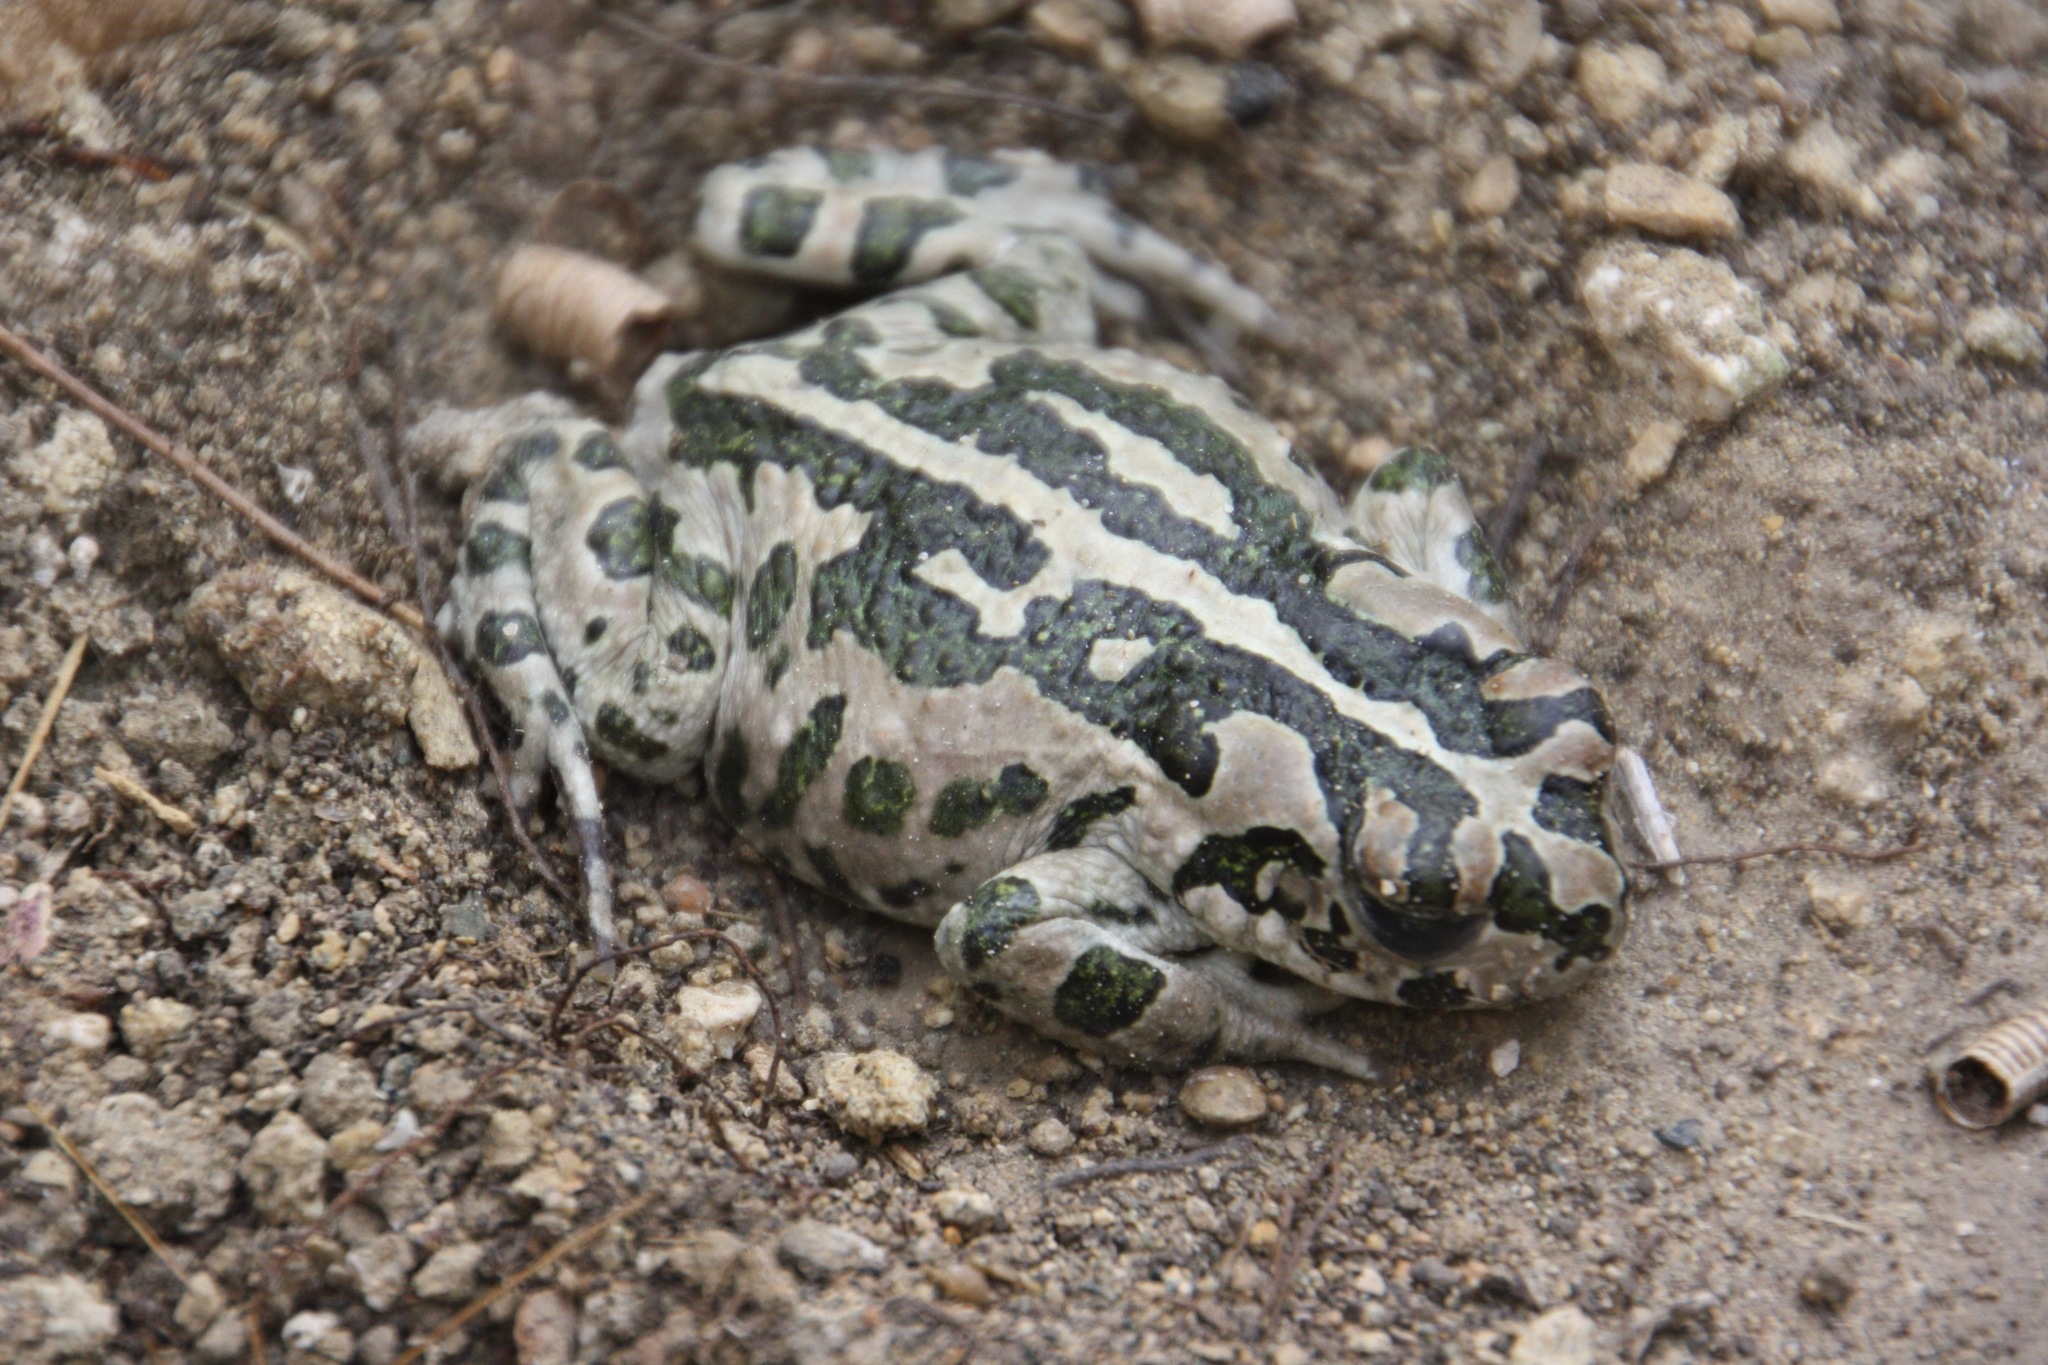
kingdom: Animalia
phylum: Chordata
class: Amphibia
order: Anura
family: Bufonidae
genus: Bufotes
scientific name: Bufotes cypriensis
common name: Cyprus green toad
